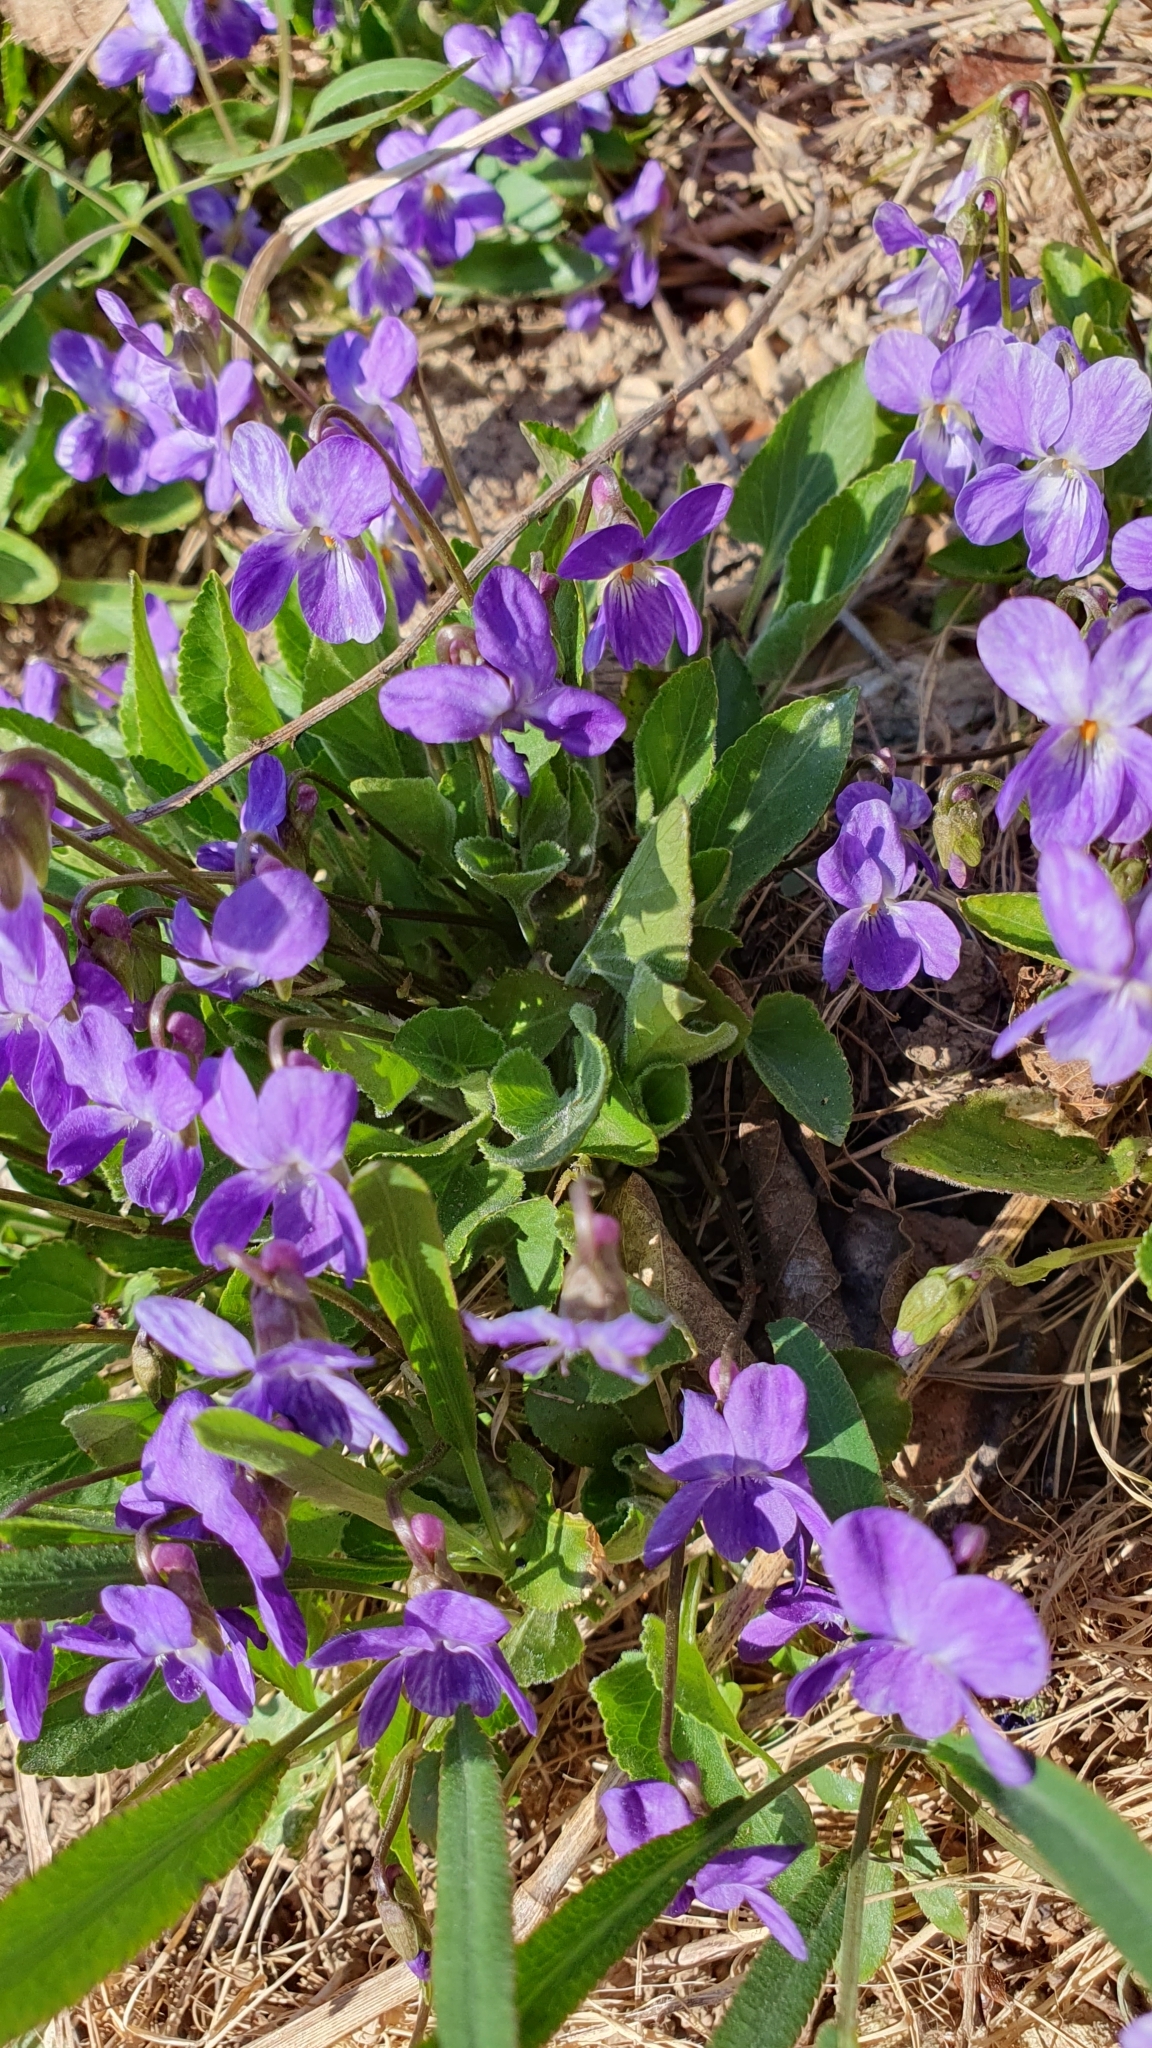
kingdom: Plantae
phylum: Tracheophyta
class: Magnoliopsida
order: Malpighiales
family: Violaceae
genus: Viola
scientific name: Viola ambigua
